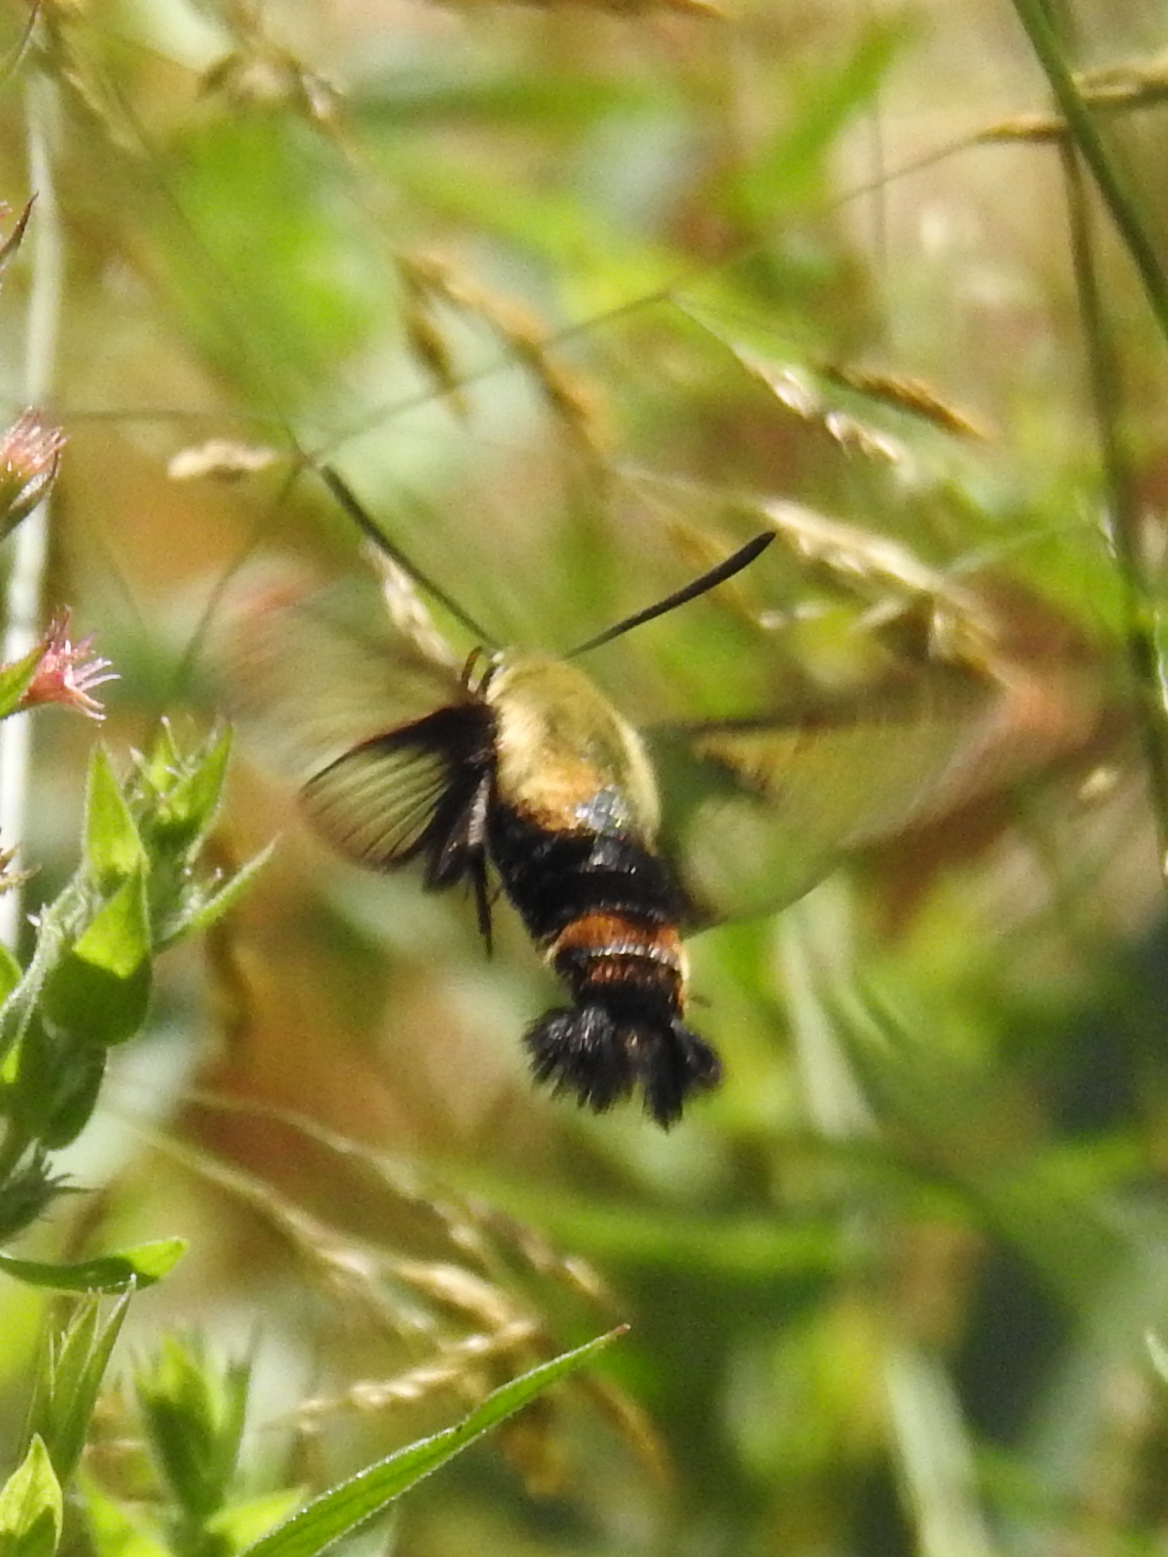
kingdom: Animalia
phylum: Arthropoda
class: Insecta
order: Lepidoptera
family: Sphingidae
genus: Hemaris
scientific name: Hemaris diffinis
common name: Bumblebee moth
